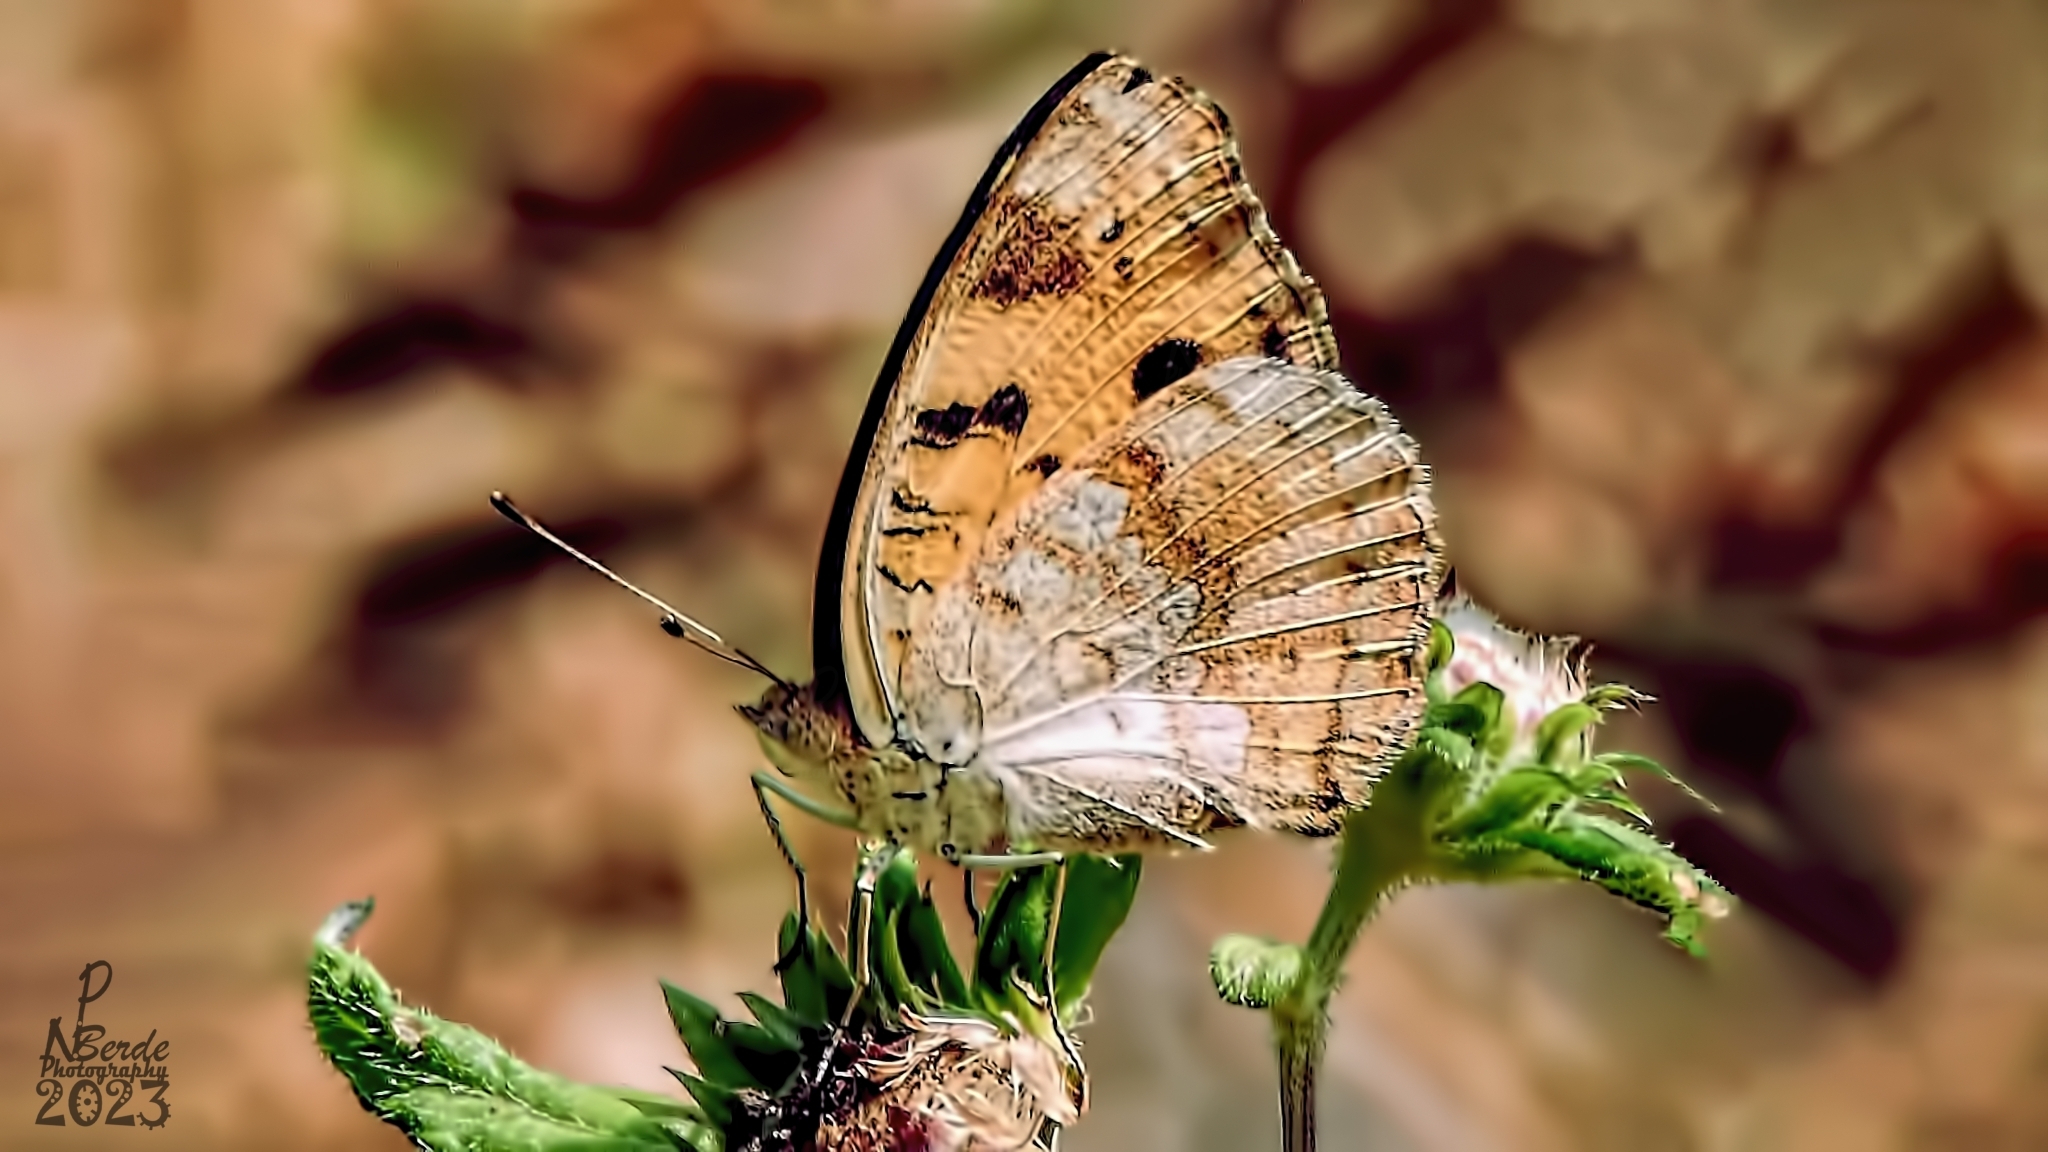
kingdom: Animalia
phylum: Arthropoda
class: Insecta
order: Lepidoptera
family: Nymphalidae
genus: Junonia
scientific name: Junonia hierta
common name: Yellow pansy
